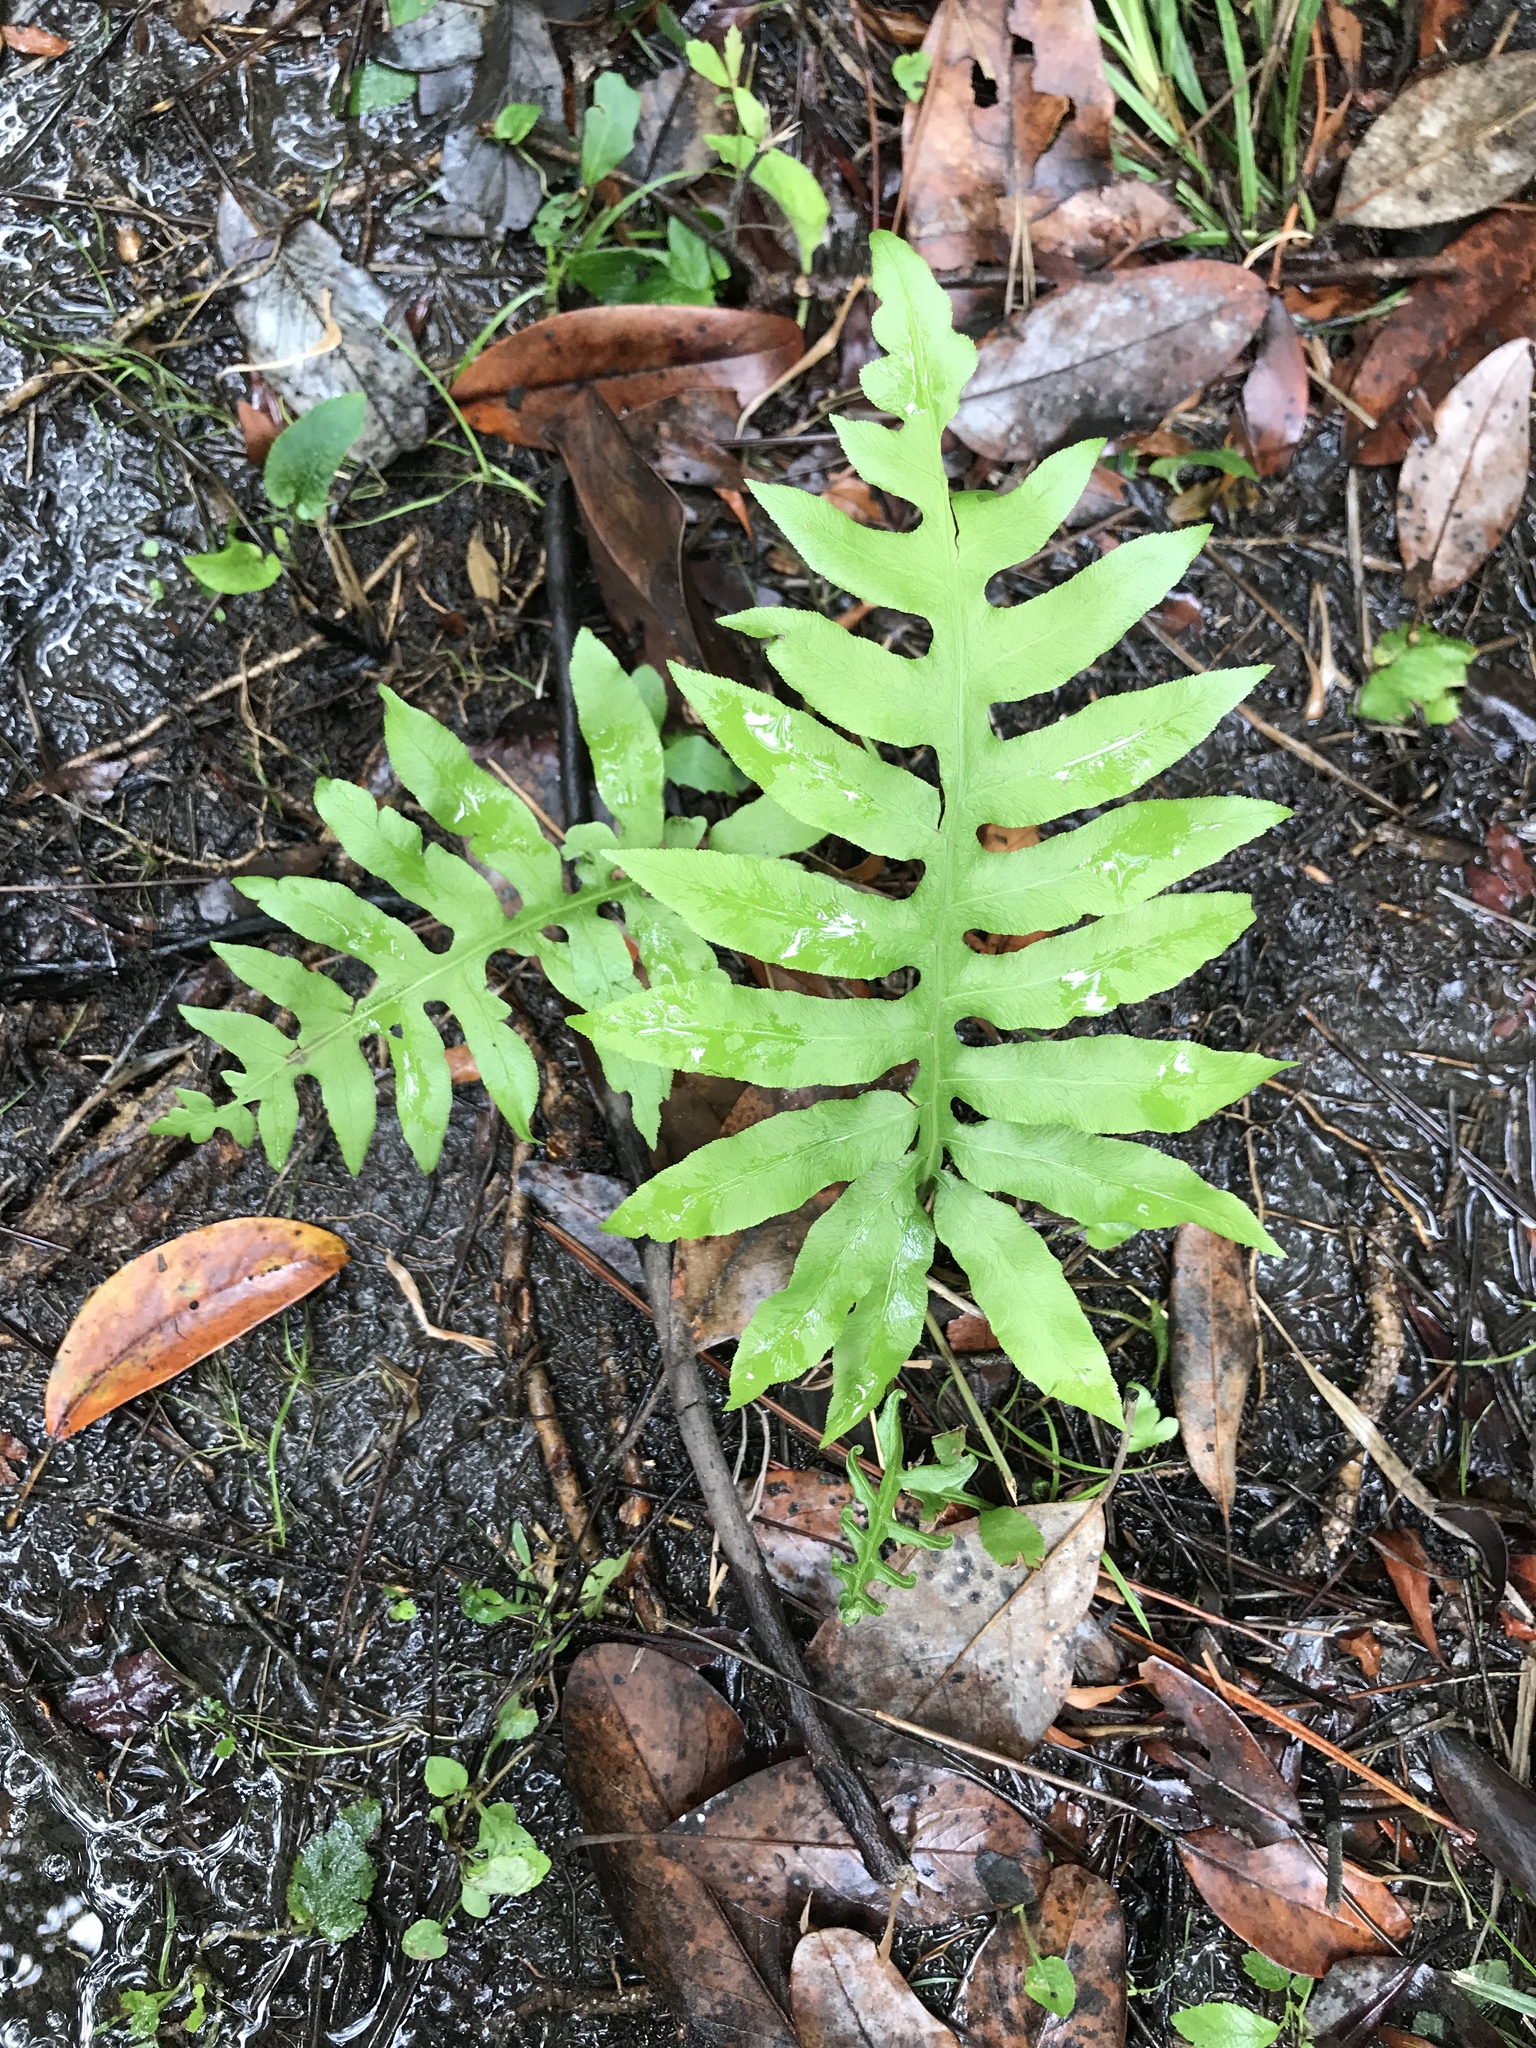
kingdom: Plantae
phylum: Tracheophyta
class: Polypodiopsida
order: Polypodiales
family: Blechnaceae
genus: Lorinseria
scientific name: Lorinseria areolata
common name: Dwarf chain fern
